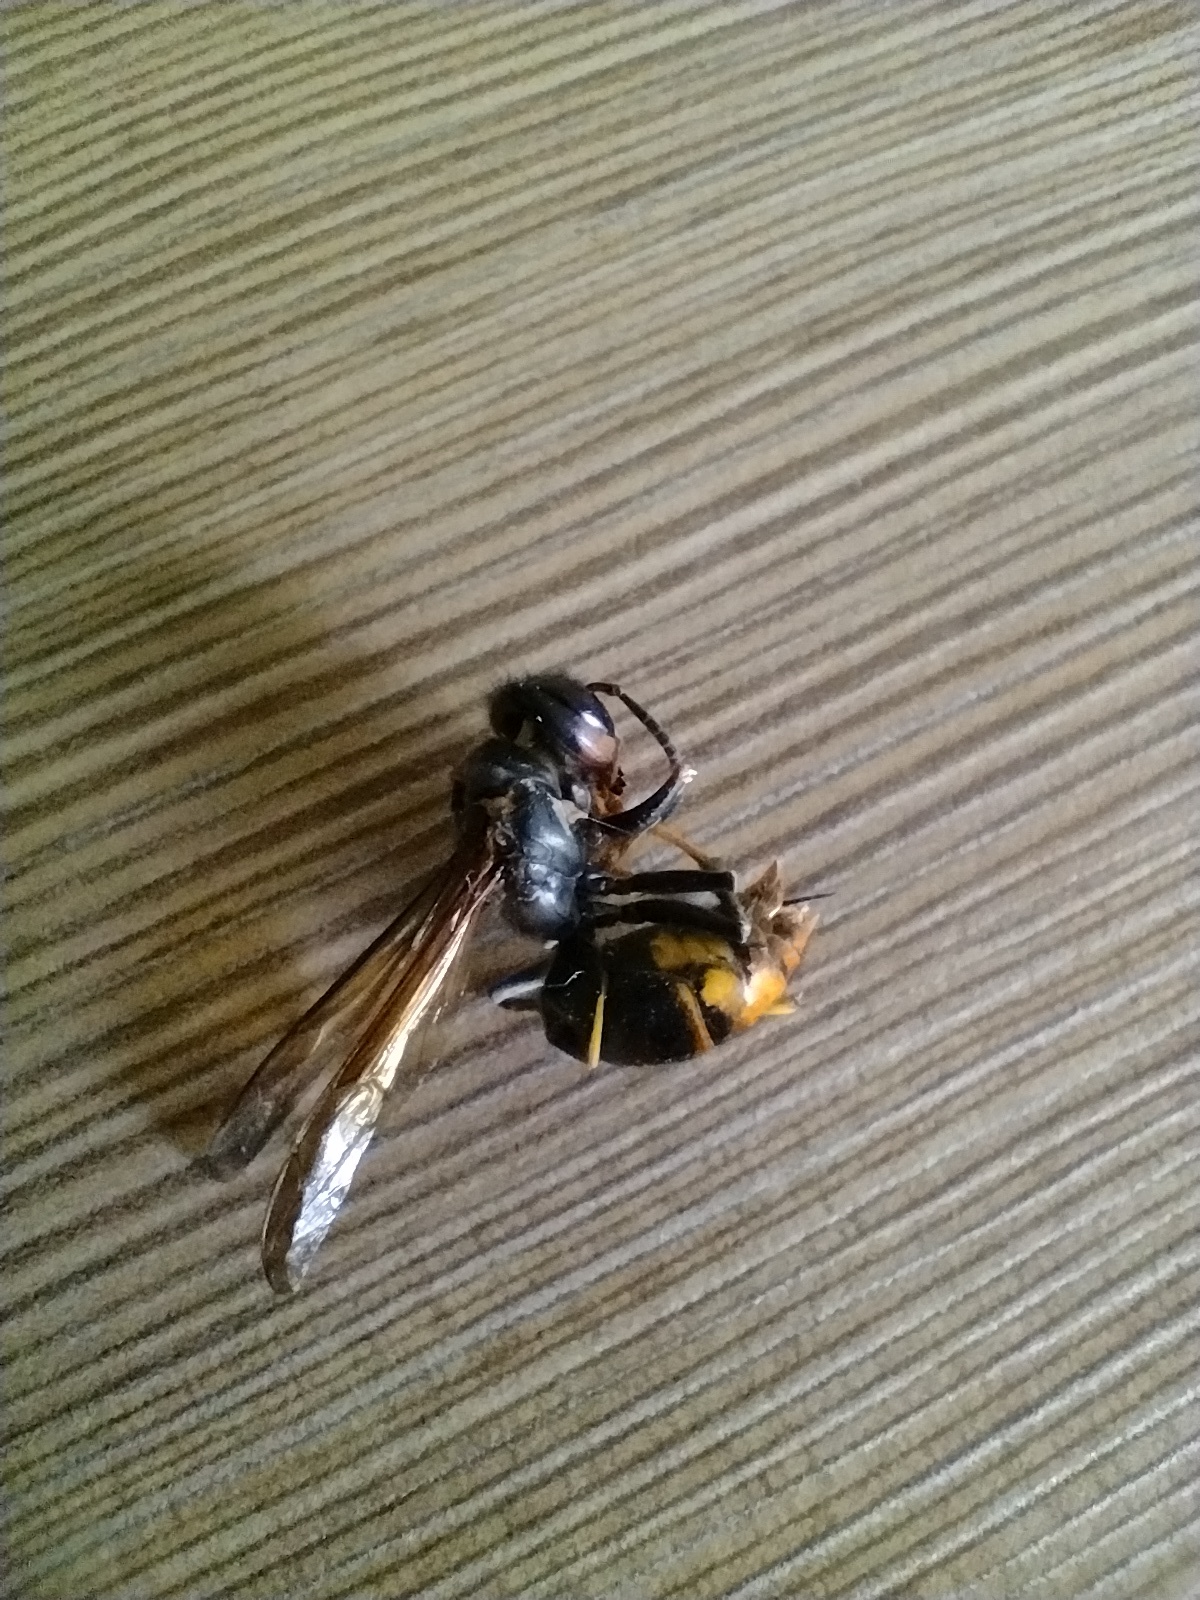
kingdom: Animalia
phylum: Arthropoda
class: Insecta
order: Hymenoptera
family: Vespidae
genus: Vespa
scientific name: Vespa velutina
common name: Asian hornet
